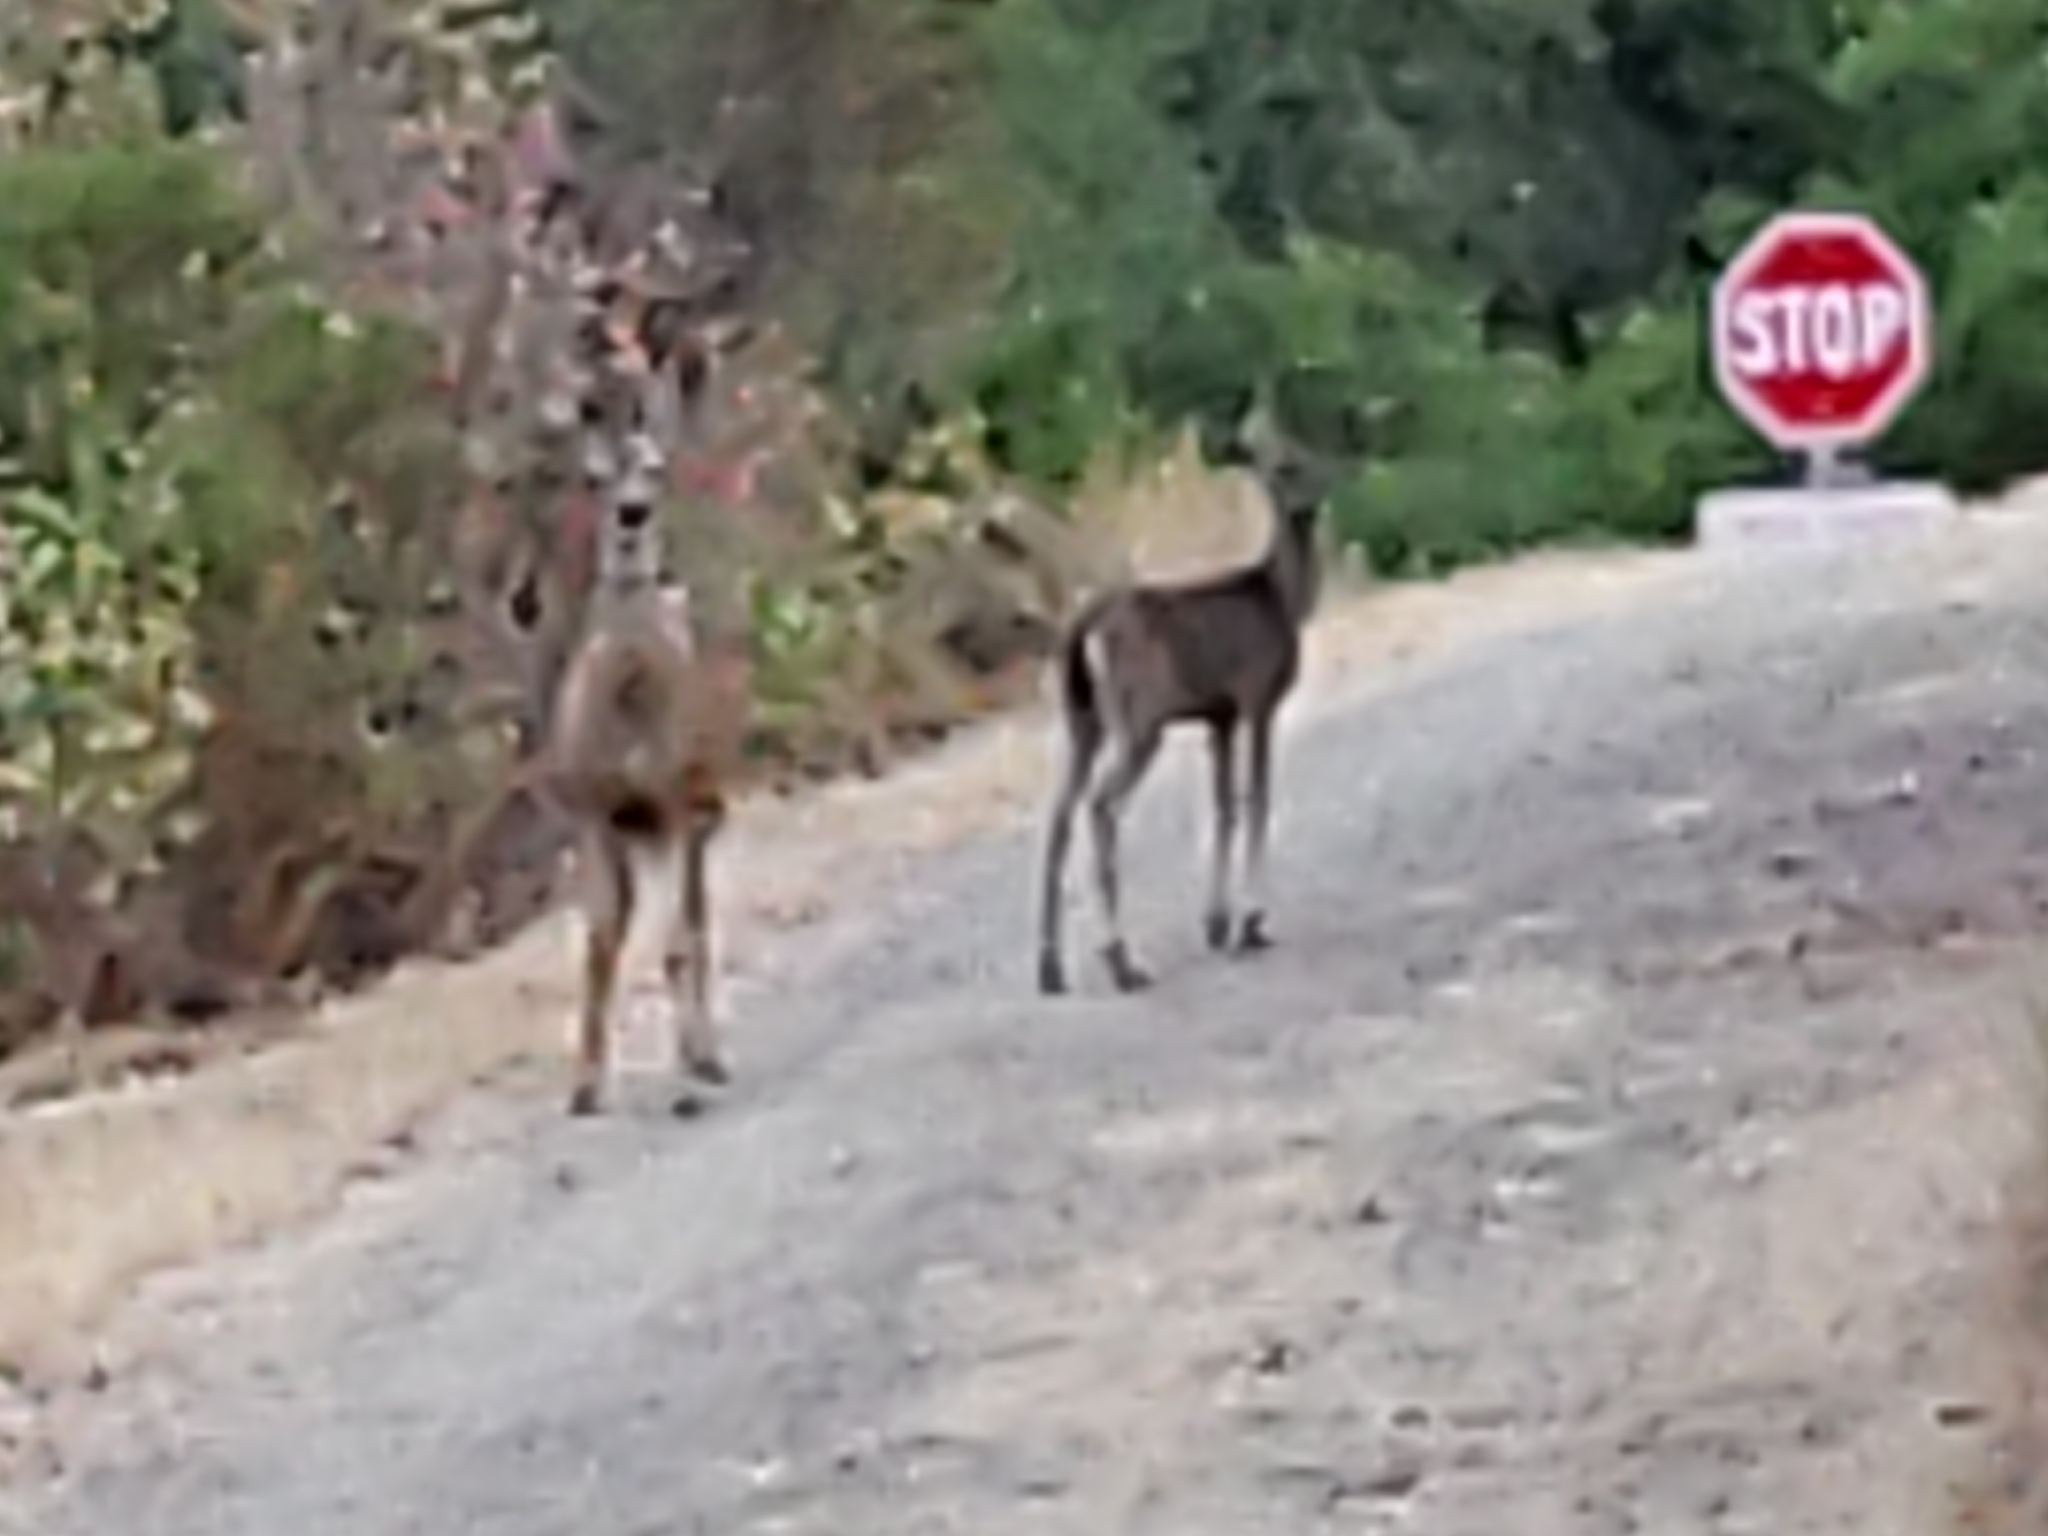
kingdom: Animalia
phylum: Chordata
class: Mammalia
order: Artiodactyla
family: Cervidae
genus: Odocoileus
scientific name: Odocoileus hemionus
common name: Mule deer
